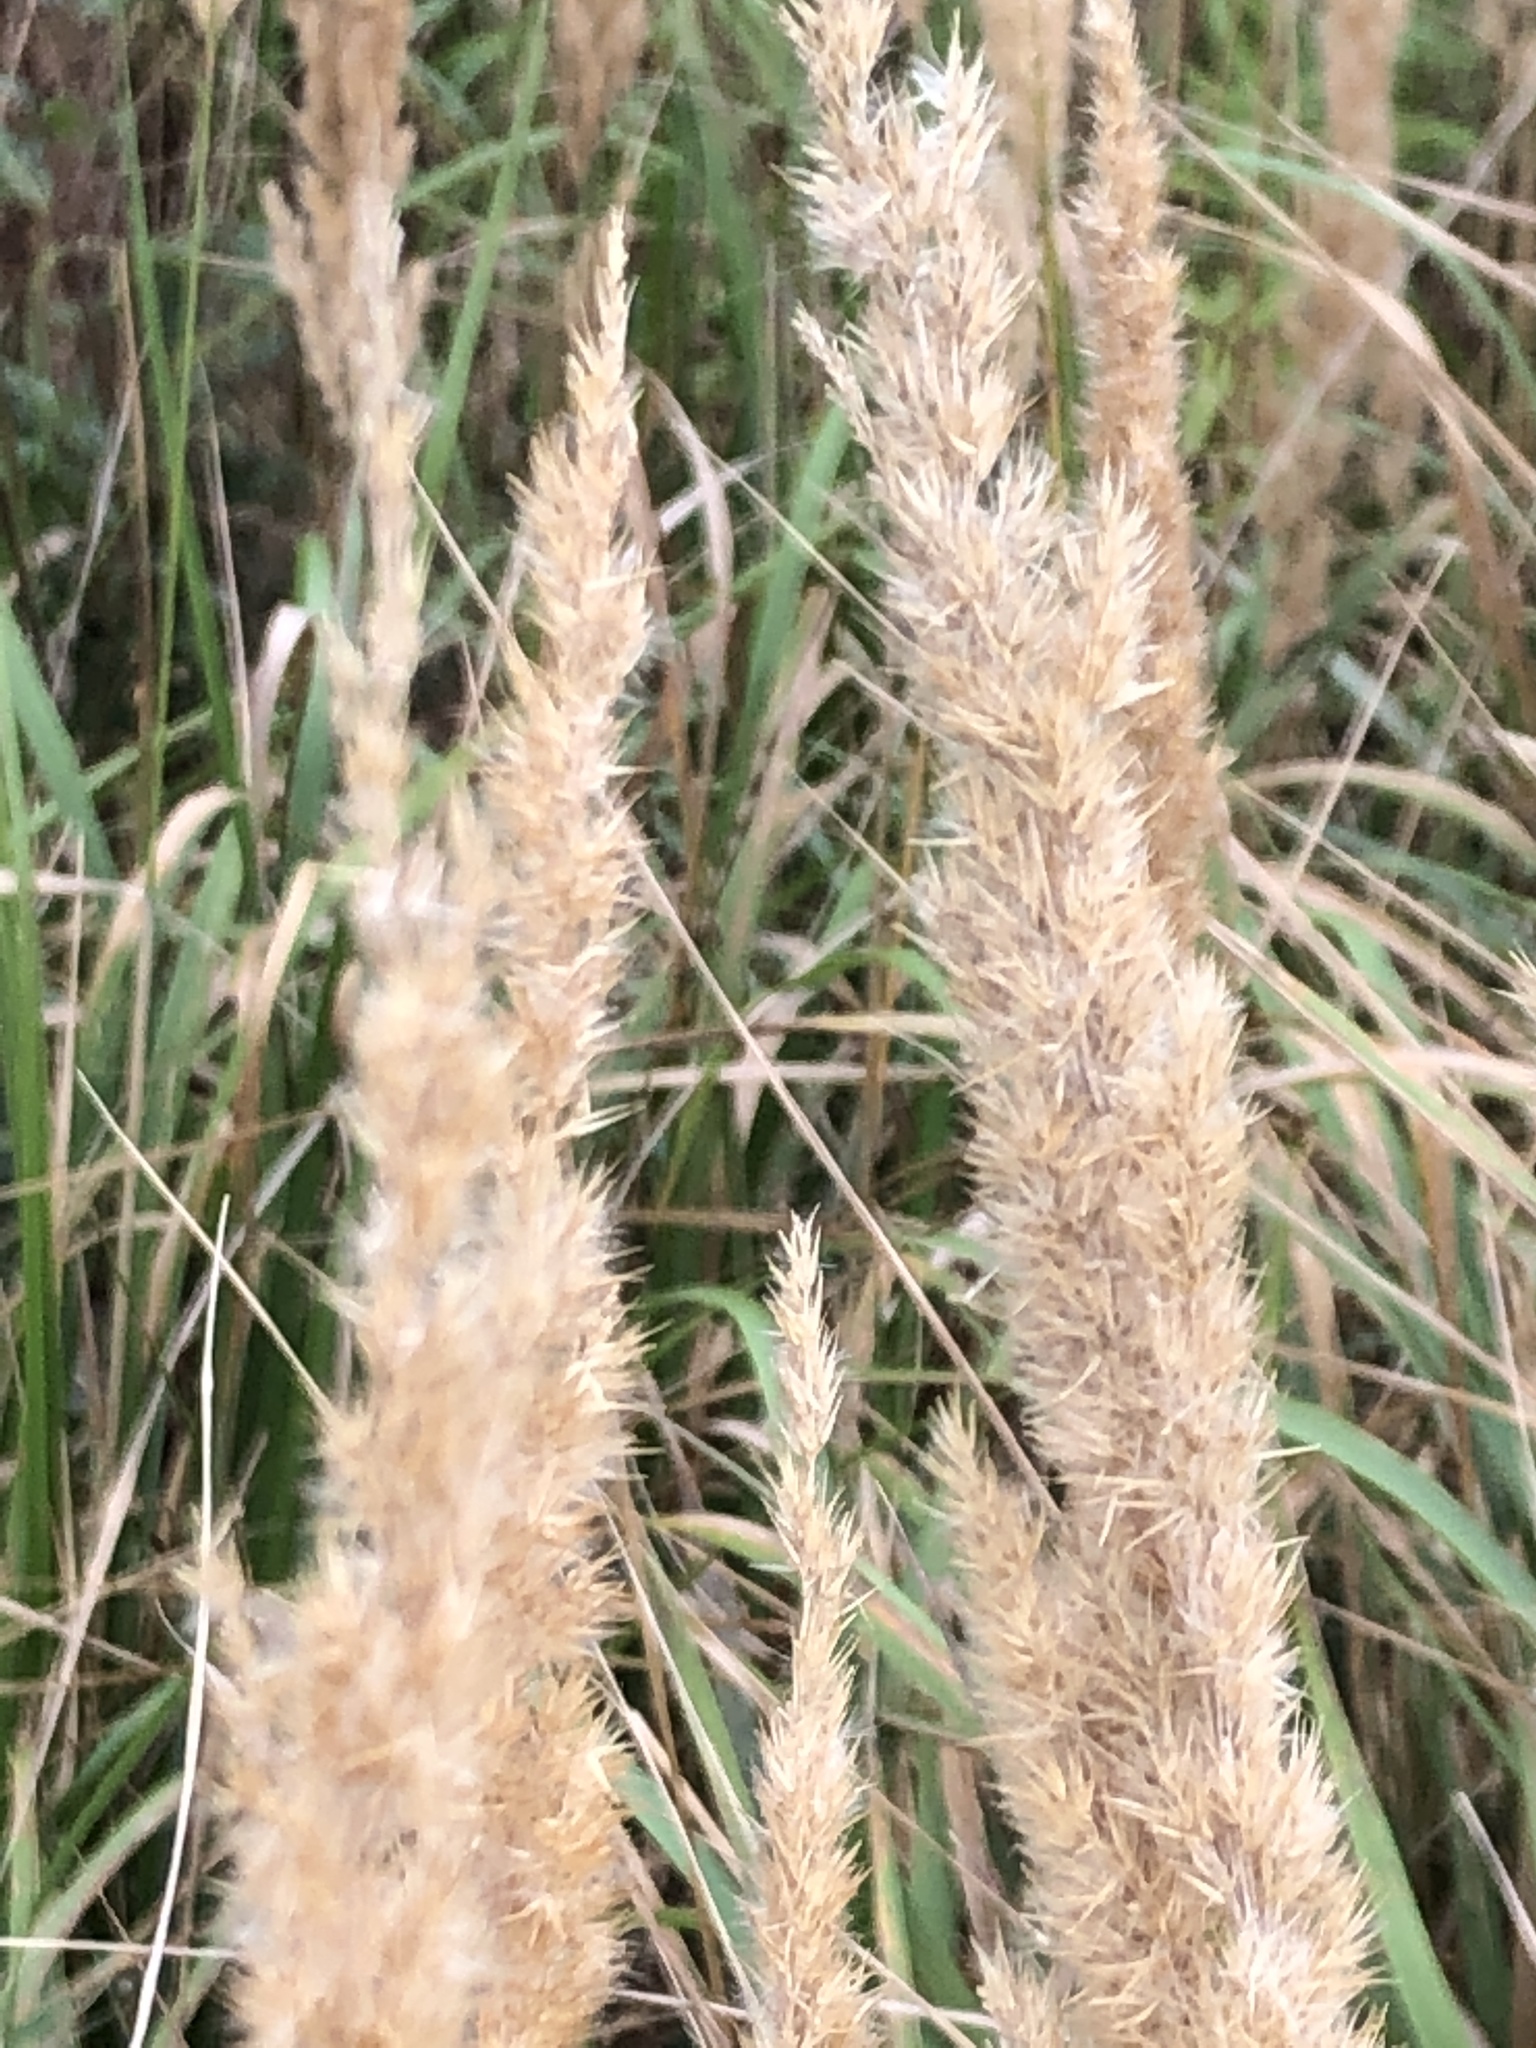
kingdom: Plantae
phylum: Tracheophyta
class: Liliopsida
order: Poales
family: Poaceae
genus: Calamagrostis
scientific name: Calamagrostis epigejos
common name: Wood small-reed
